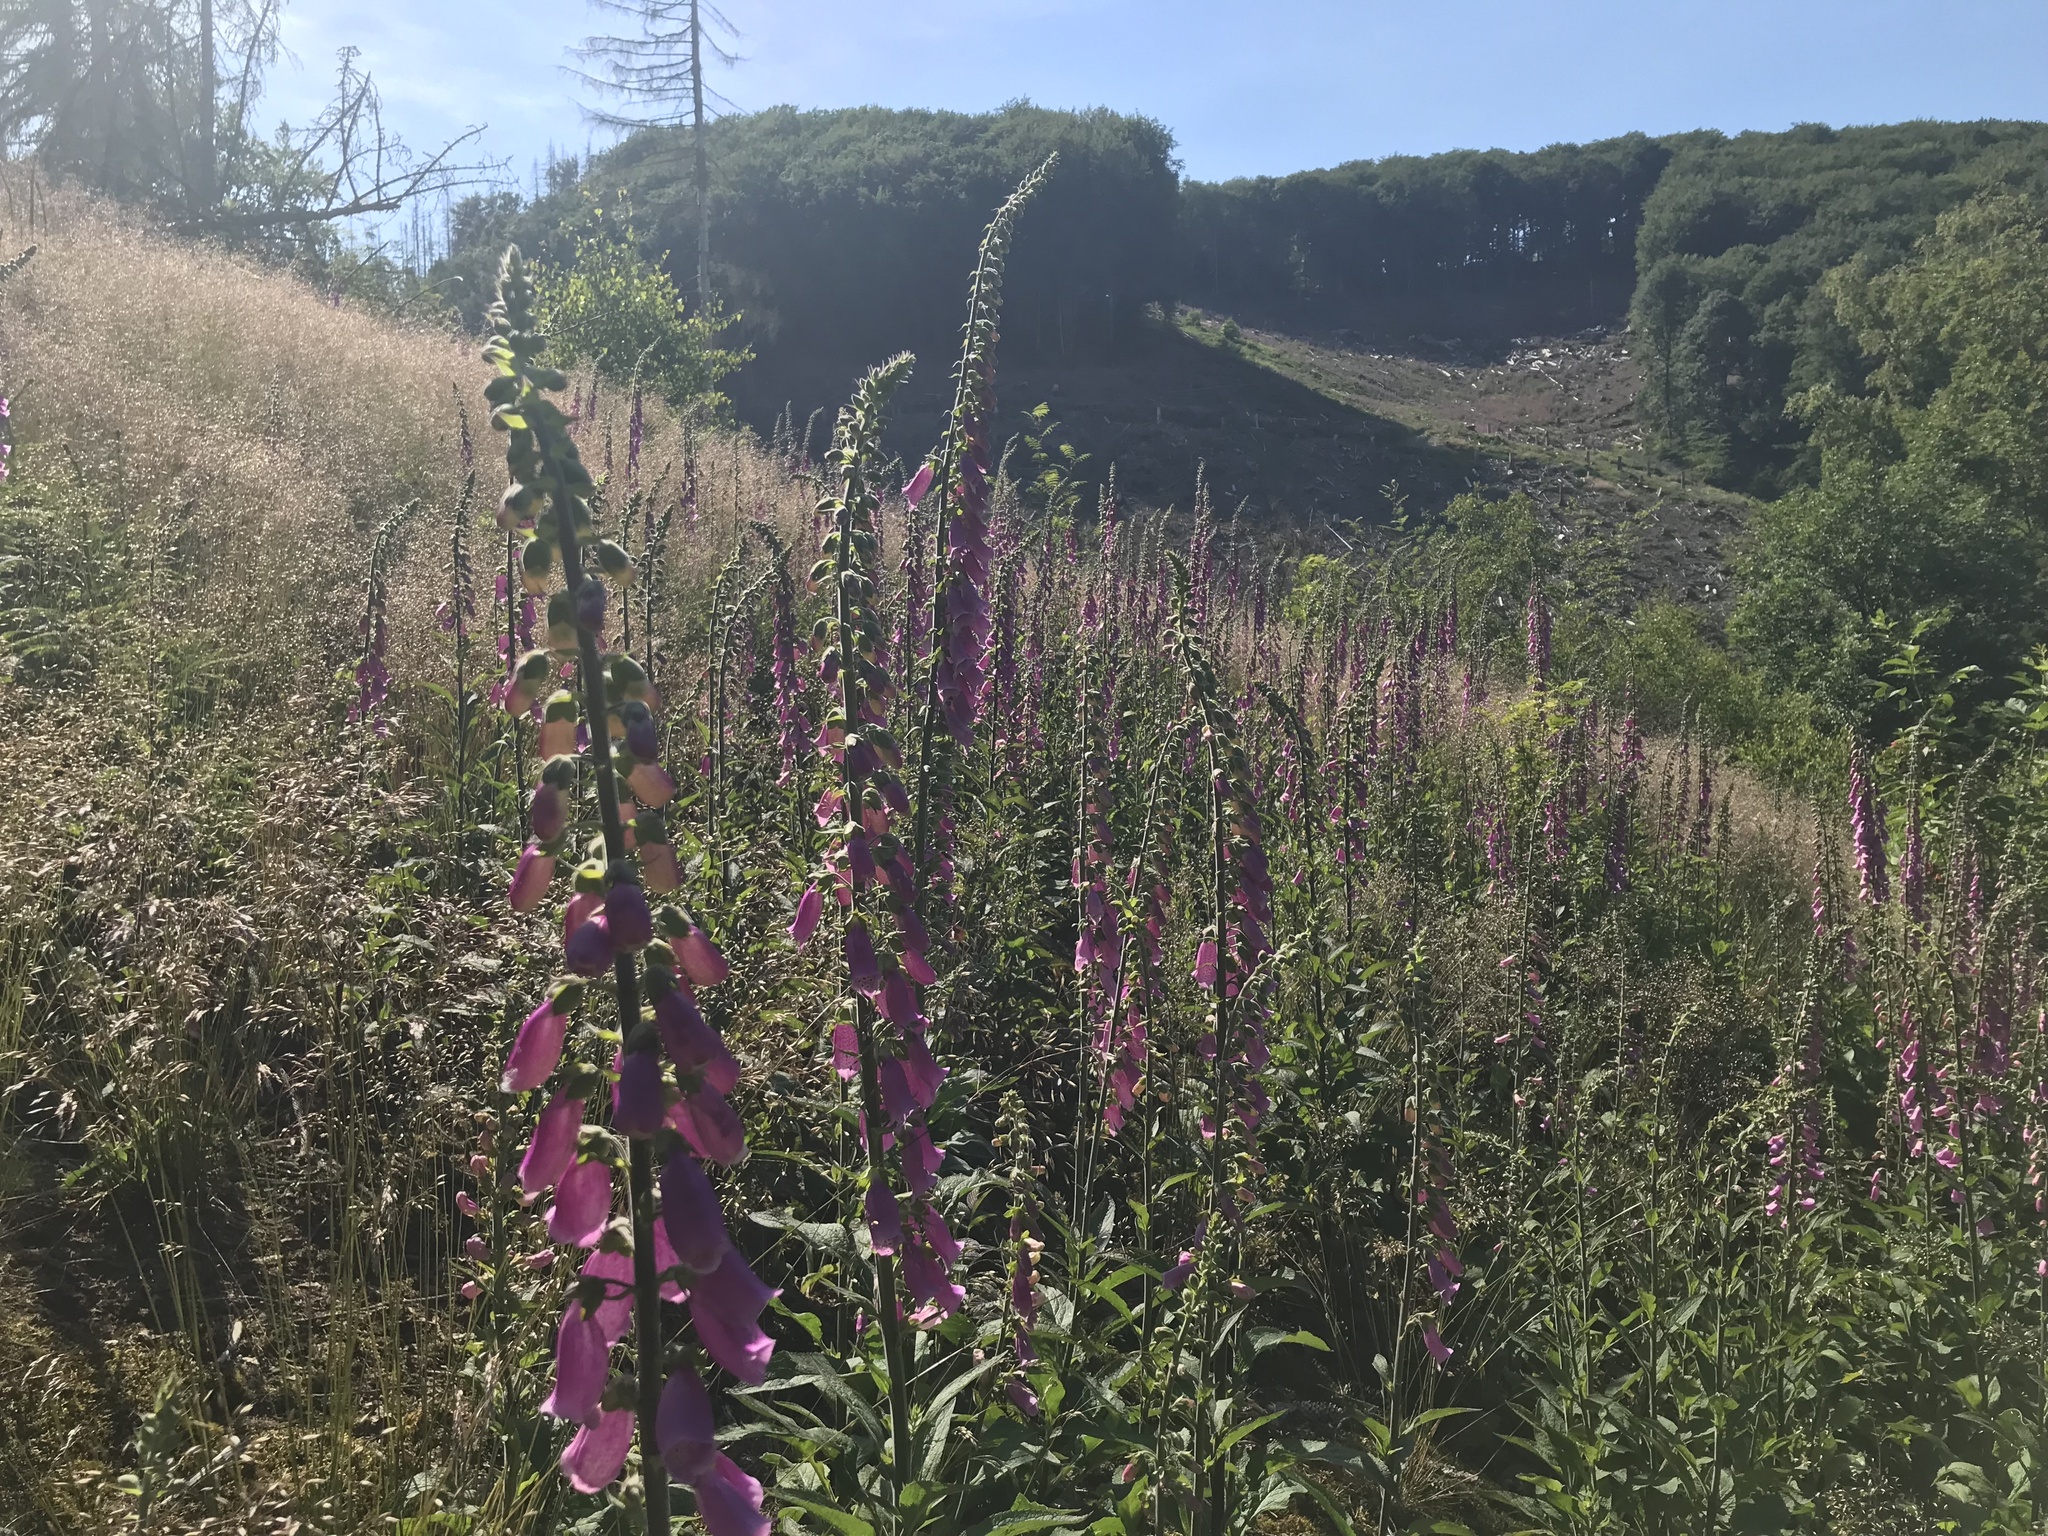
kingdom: Plantae
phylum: Tracheophyta
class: Magnoliopsida
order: Lamiales
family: Plantaginaceae
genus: Digitalis
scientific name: Digitalis purpurea
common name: Foxglove
